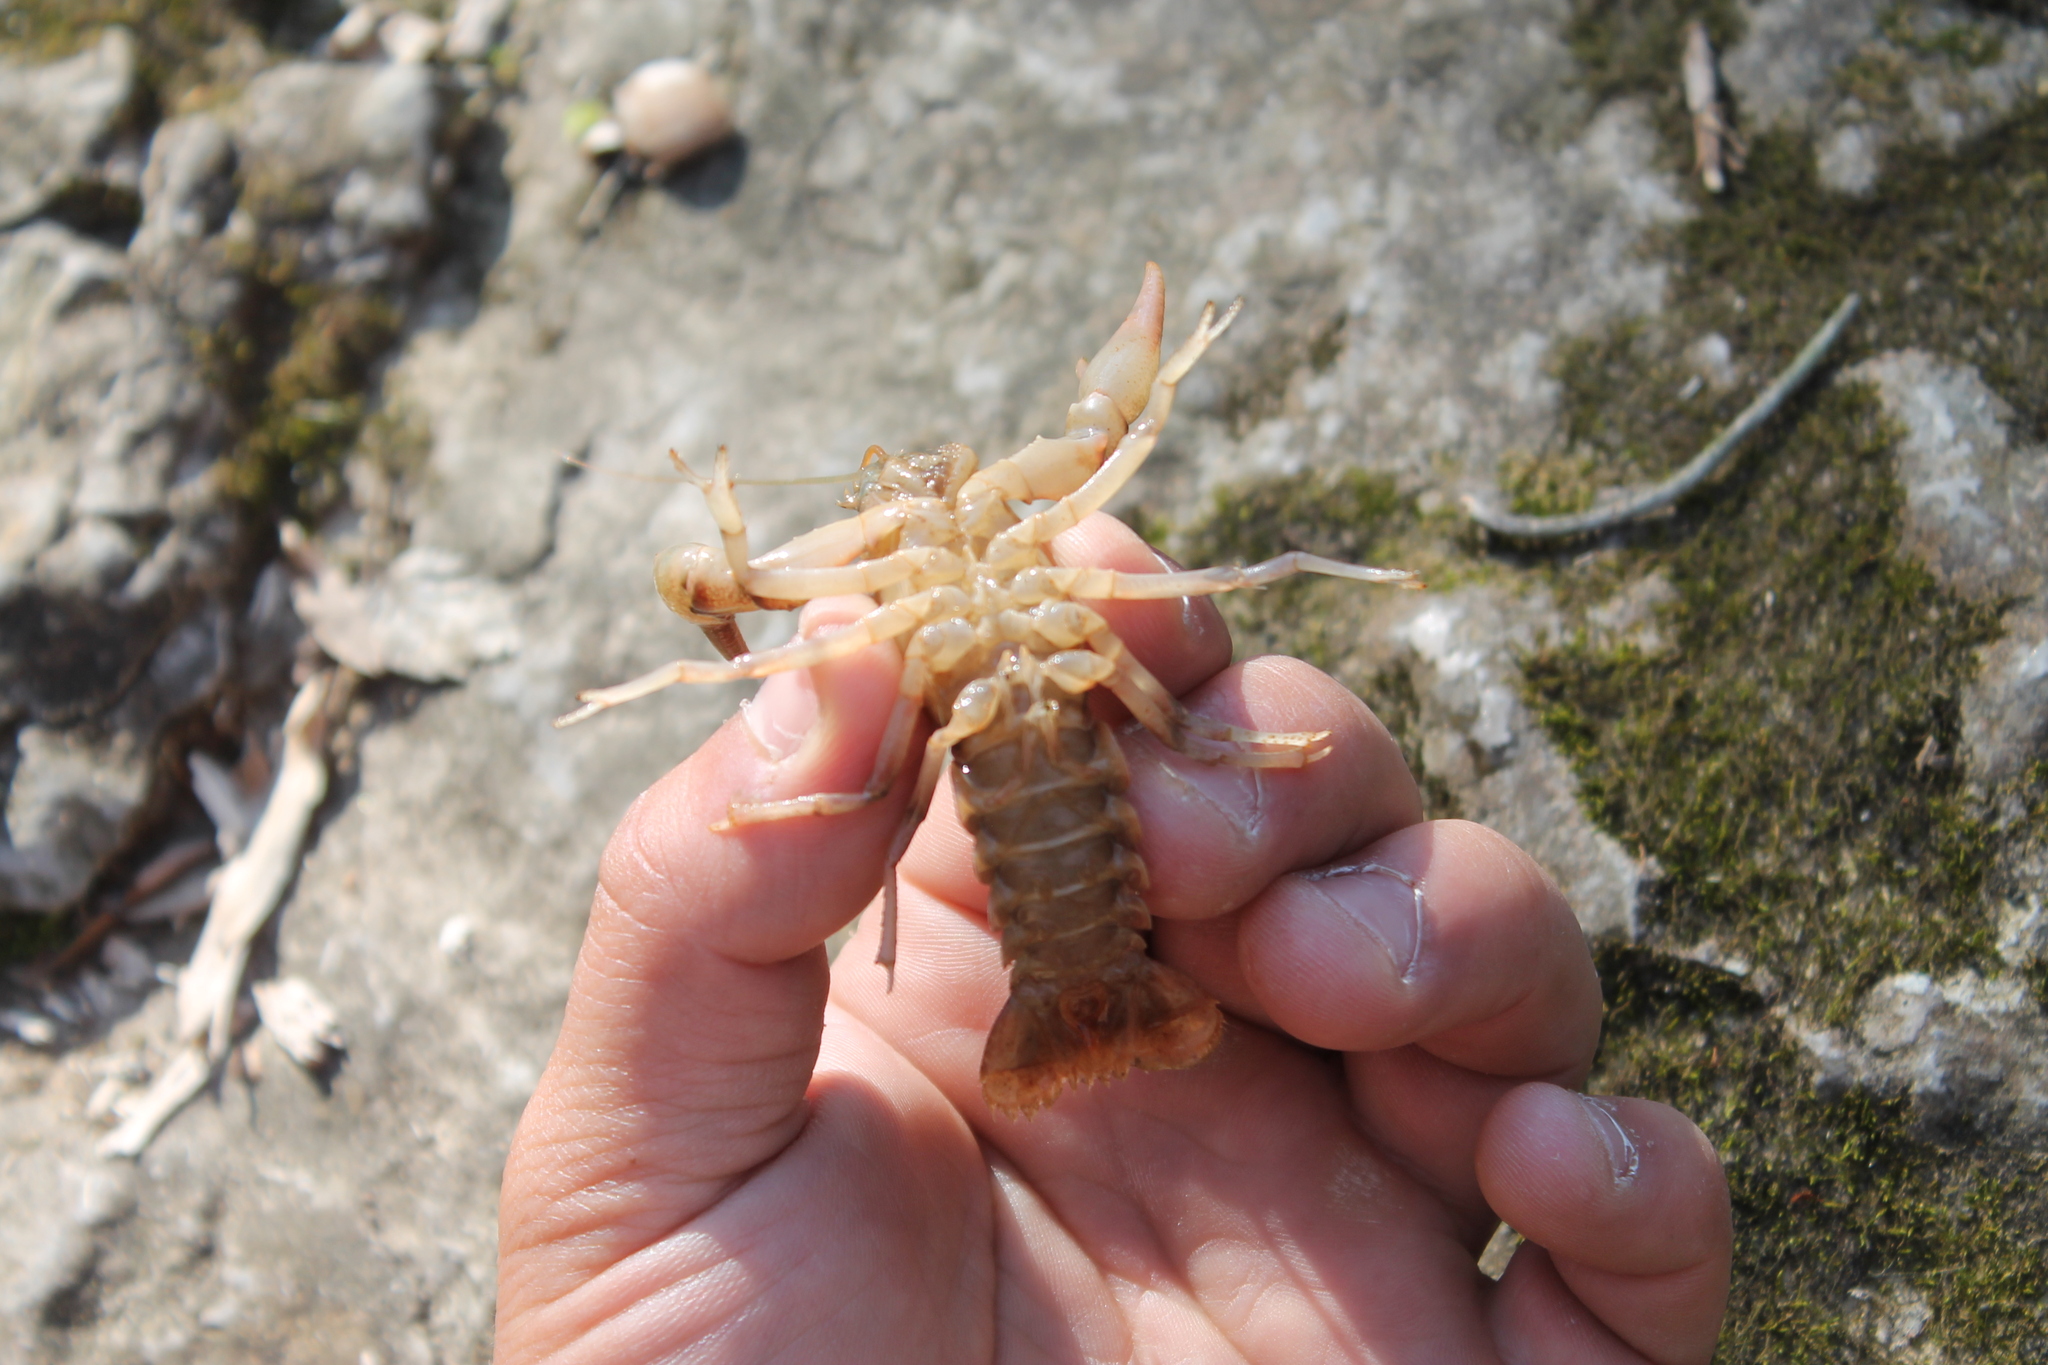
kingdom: Animalia
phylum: Arthropoda
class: Malacostraca
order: Decapoda
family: Cambaridae
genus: Cambarus
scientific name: Cambarus tenebrosus
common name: Cavespring crayfish
